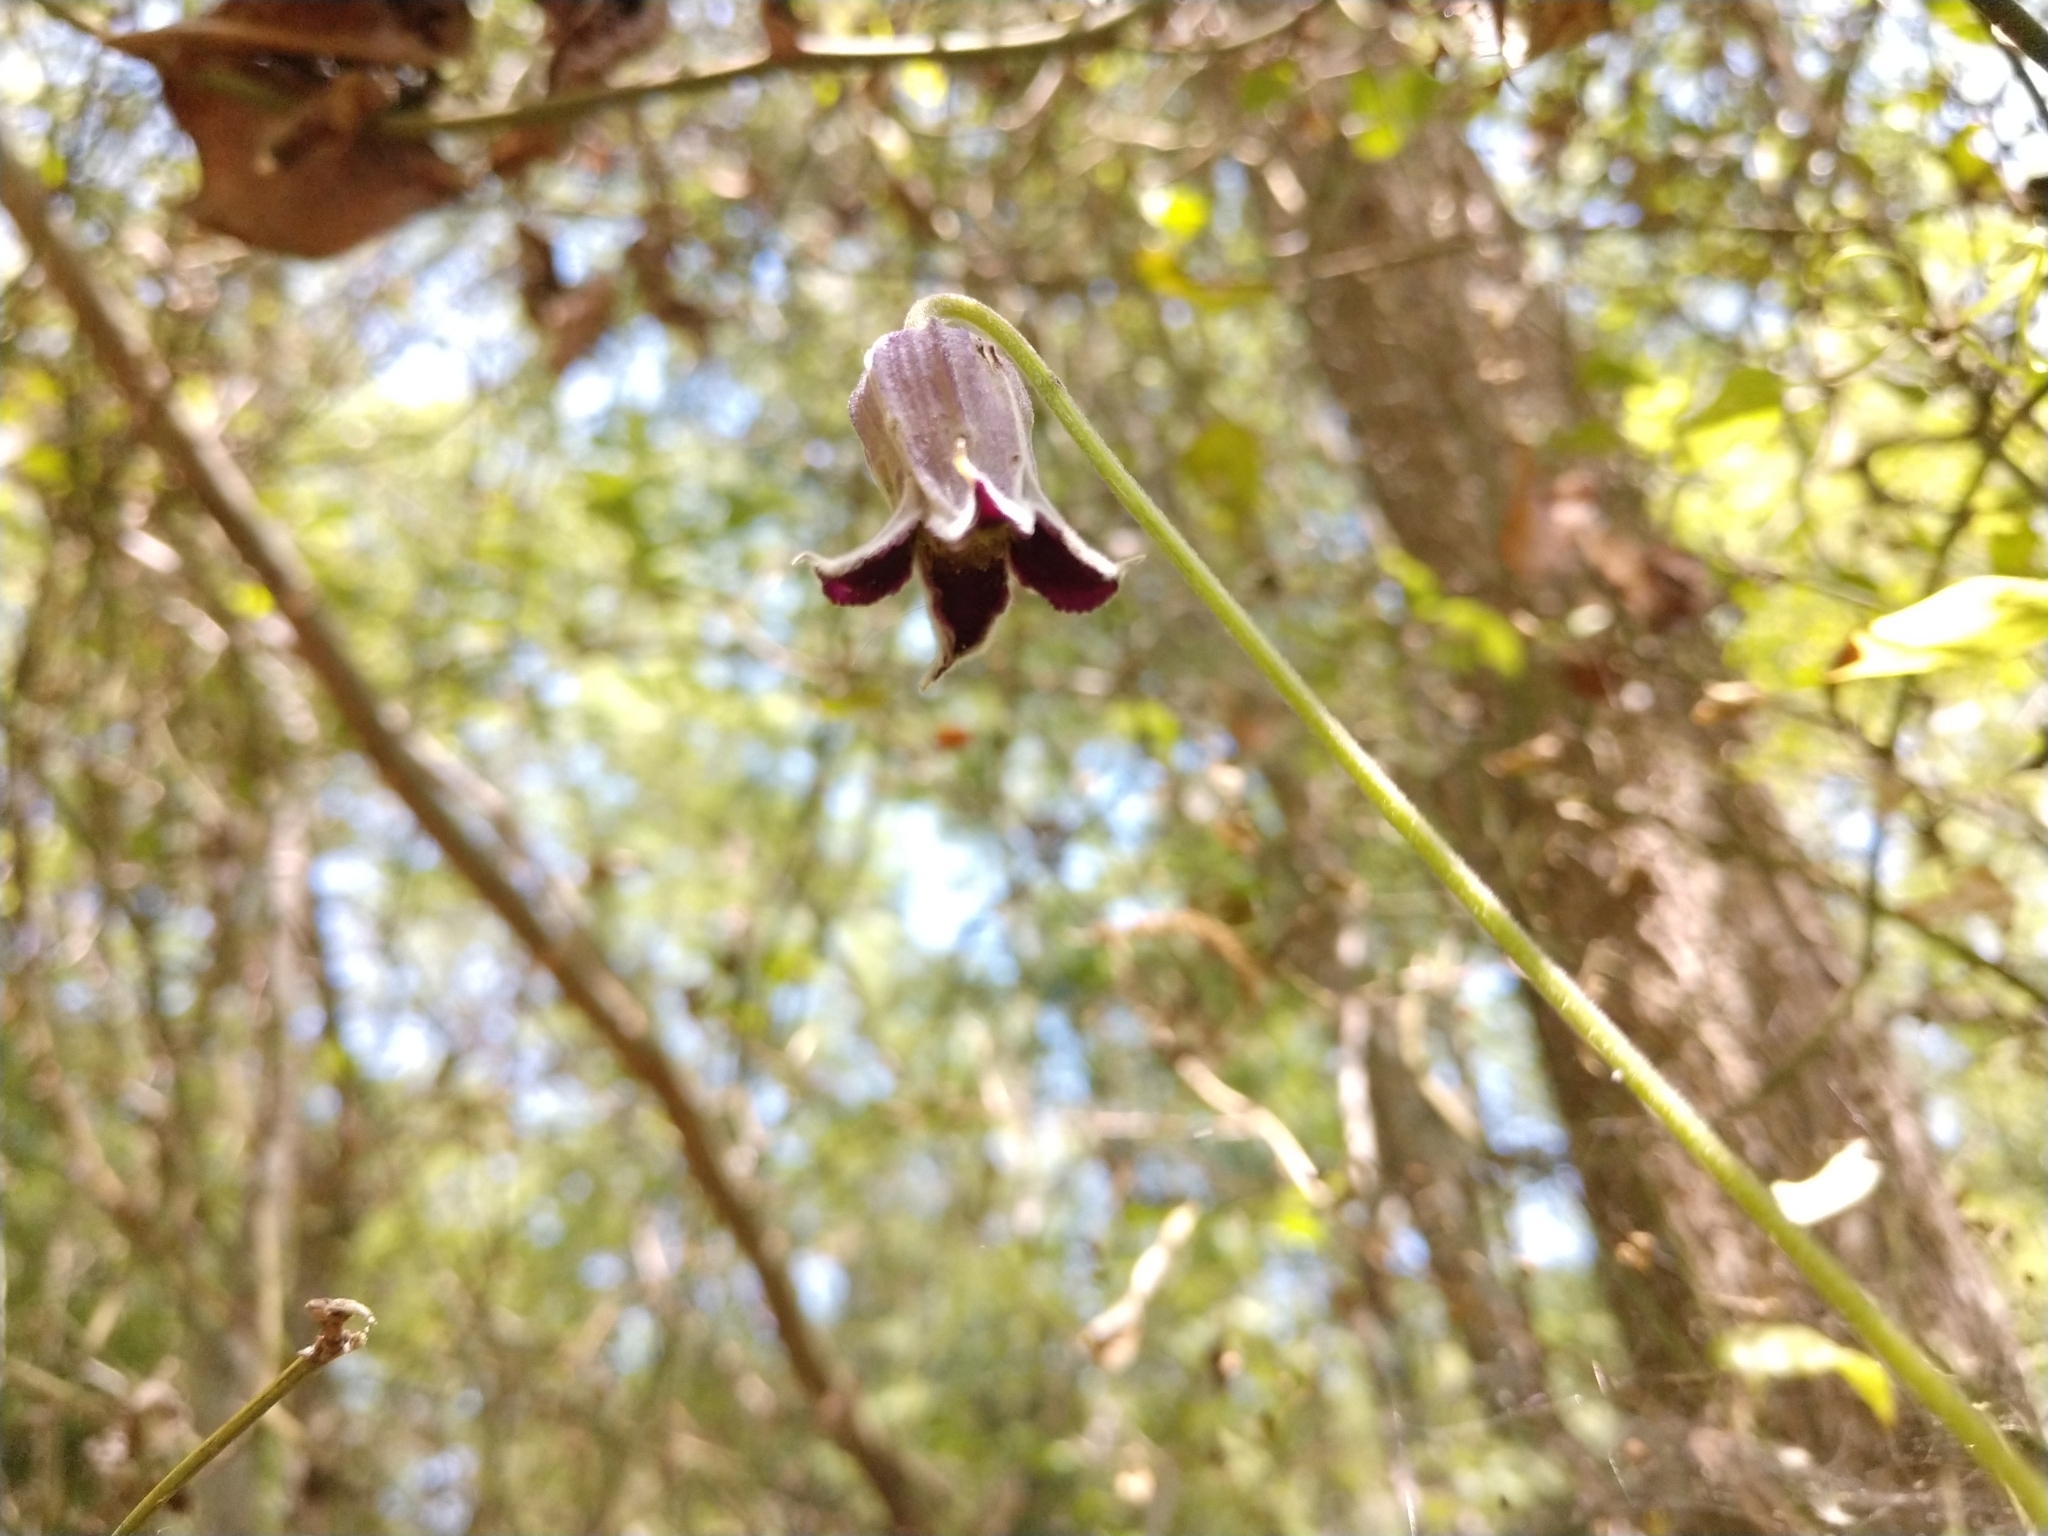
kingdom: Plantae
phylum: Tracheophyta
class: Magnoliopsida
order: Ranunculales
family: Ranunculaceae
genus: Clematis
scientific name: Clematis pitcheri
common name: Bellflower clematis
